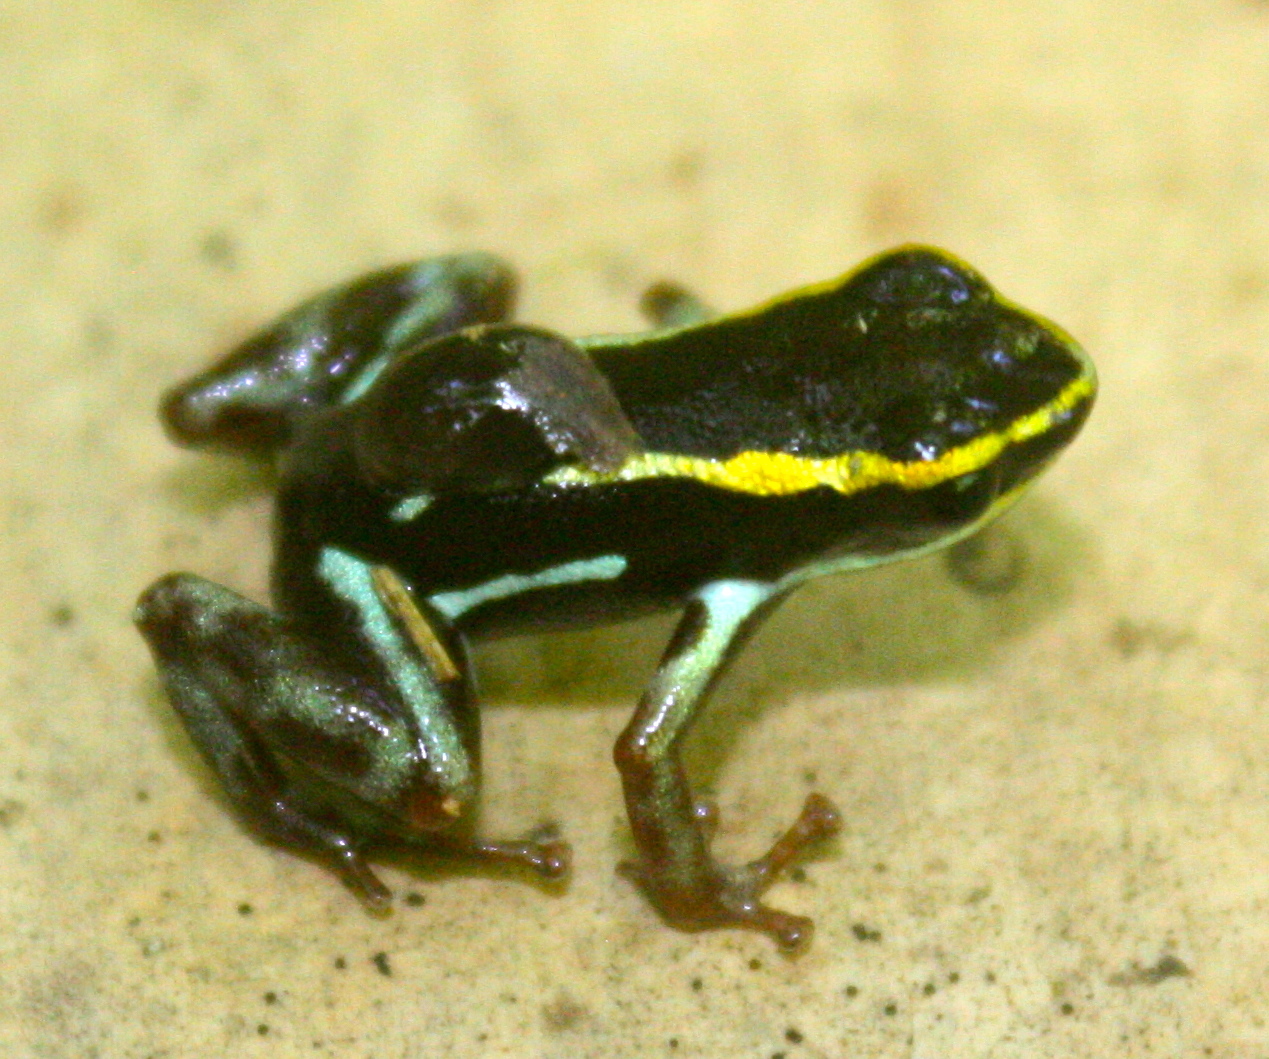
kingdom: Animalia
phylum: Chordata
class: Amphibia
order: Anura
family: Dendrobatidae
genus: Andinobates
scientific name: Andinobates claudiae
